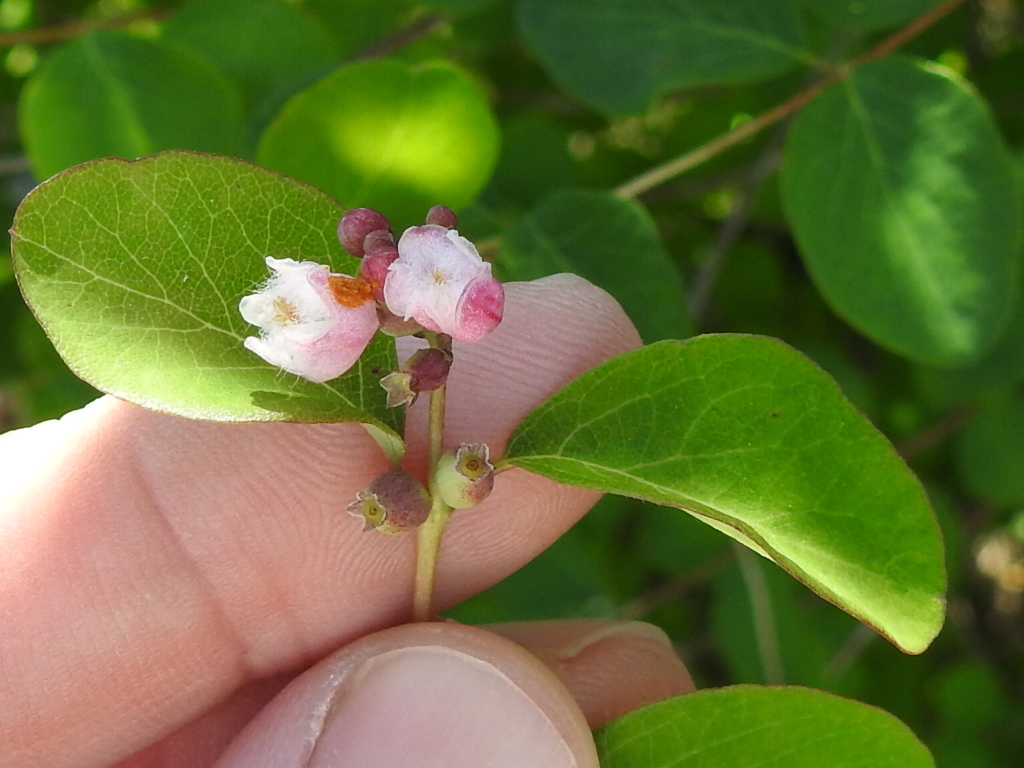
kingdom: Plantae
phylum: Tracheophyta
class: Magnoliopsida
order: Dipsacales
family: Caprifoliaceae
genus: Symphoricarpos
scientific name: Symphoricarpos albus
